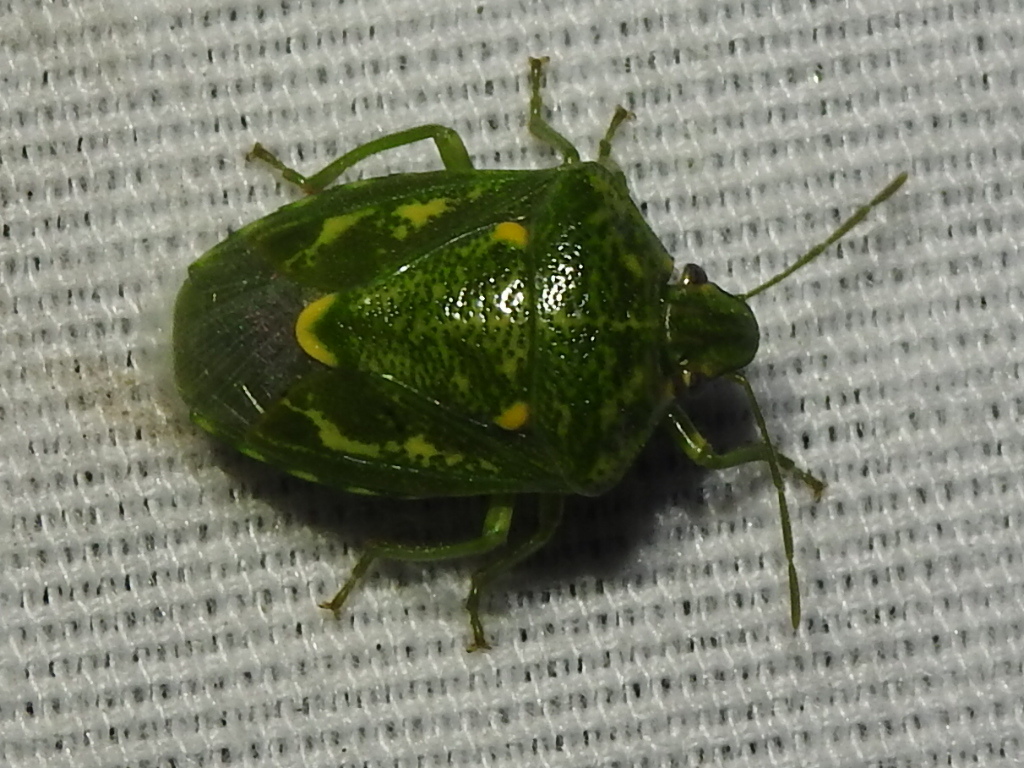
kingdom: Animalia
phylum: Arthropoda
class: Insecta
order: Hemiptera
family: Pentatomidae
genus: Banasa
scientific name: Banasa euchlora
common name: Cedar berry bug
